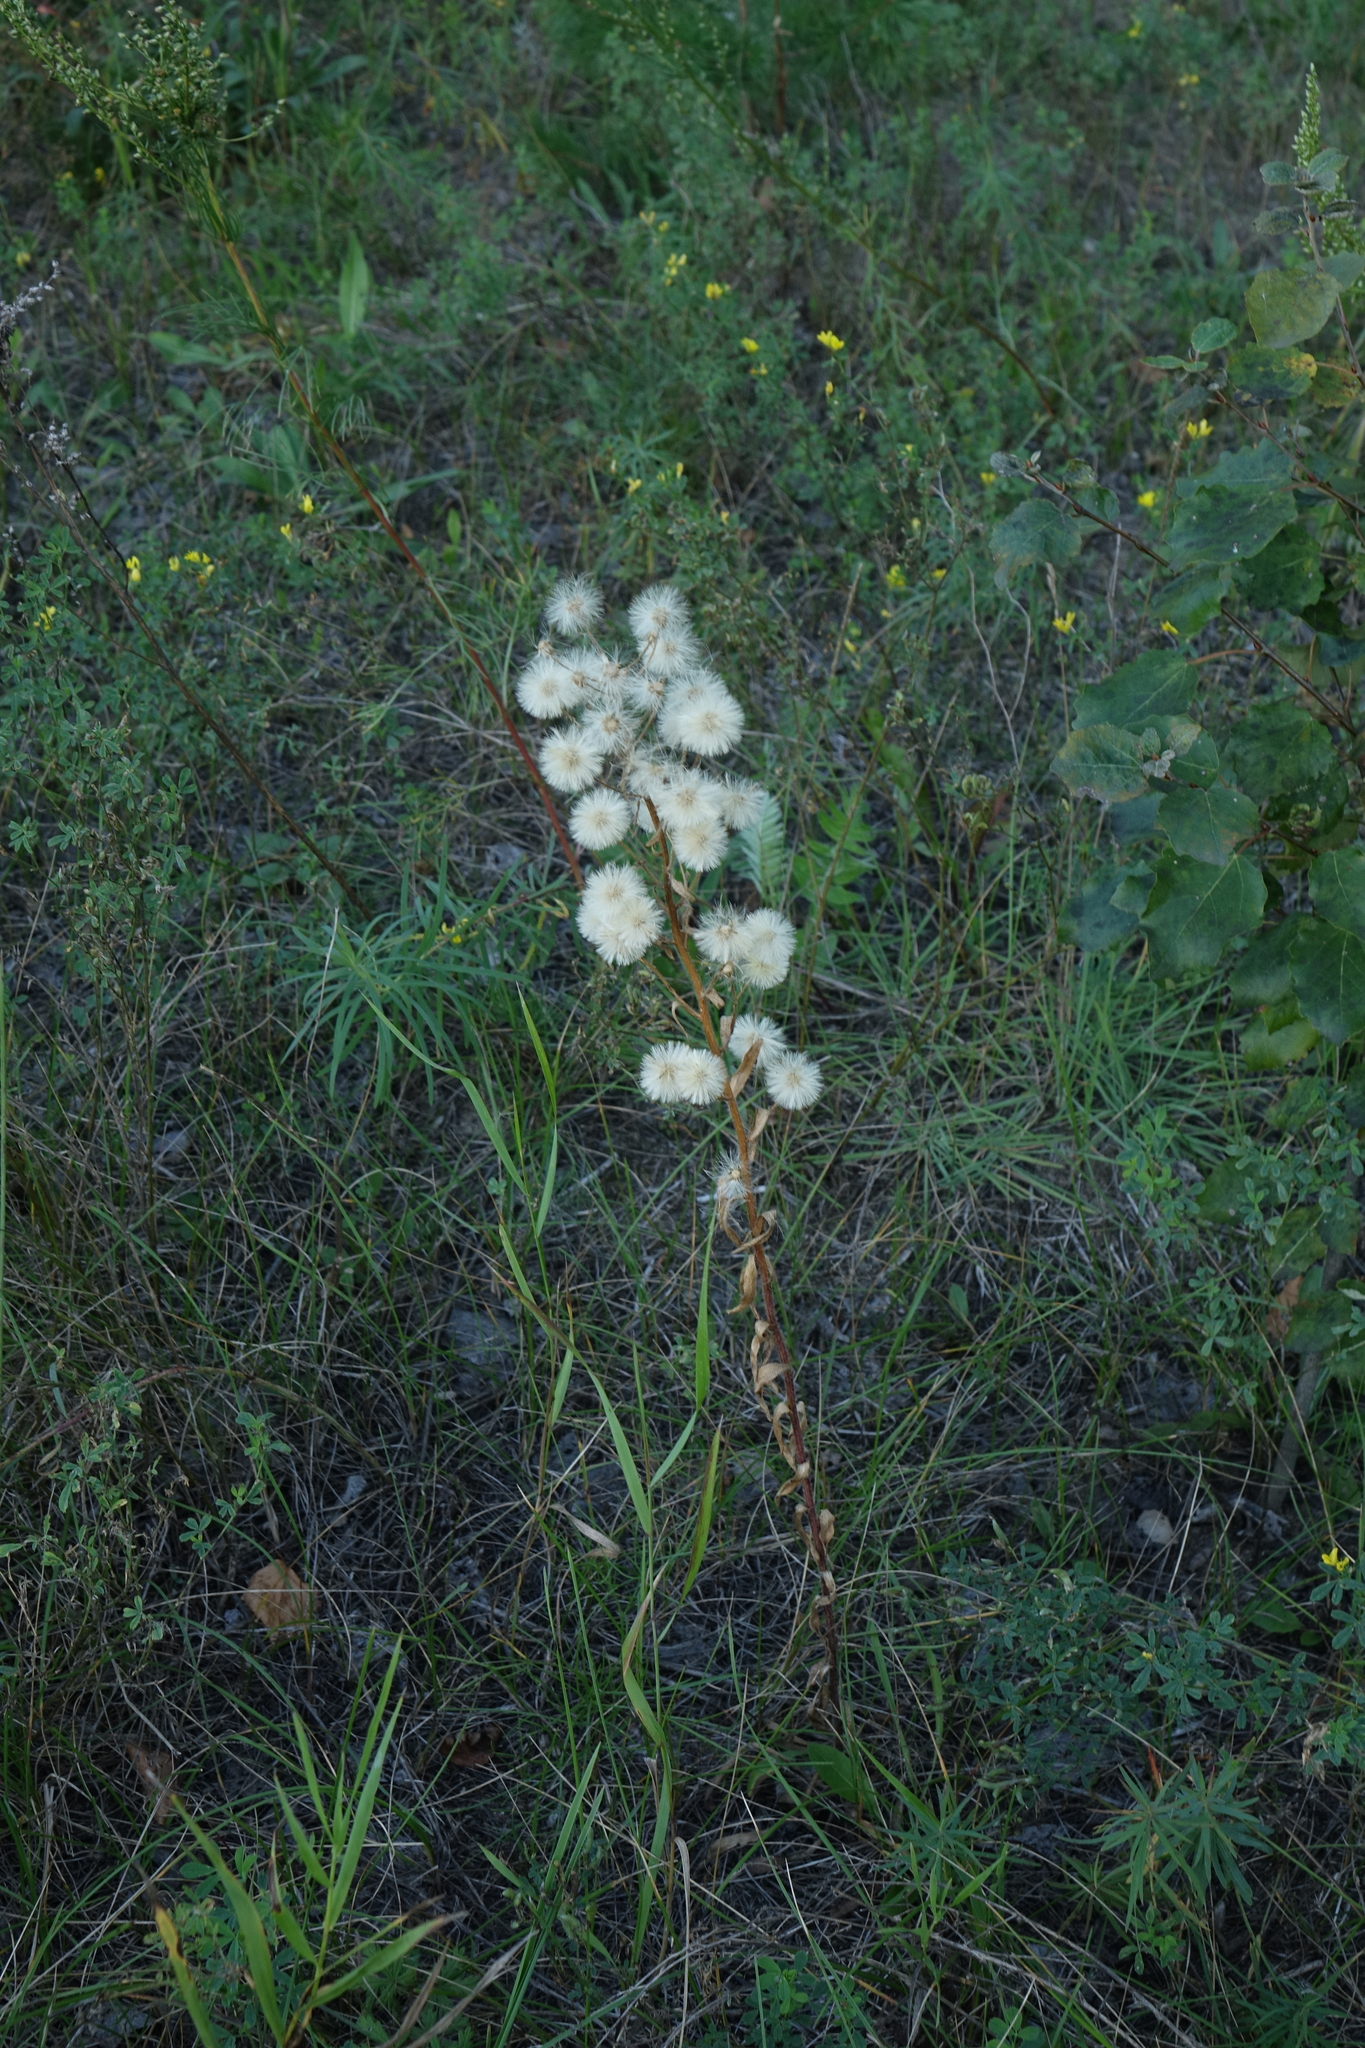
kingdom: Plantae
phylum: Tracheophyta
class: Magnoliopsida
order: Asterales
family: Asteraceae
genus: Erigeron
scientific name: Erigeron acris
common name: Blue fleabane
